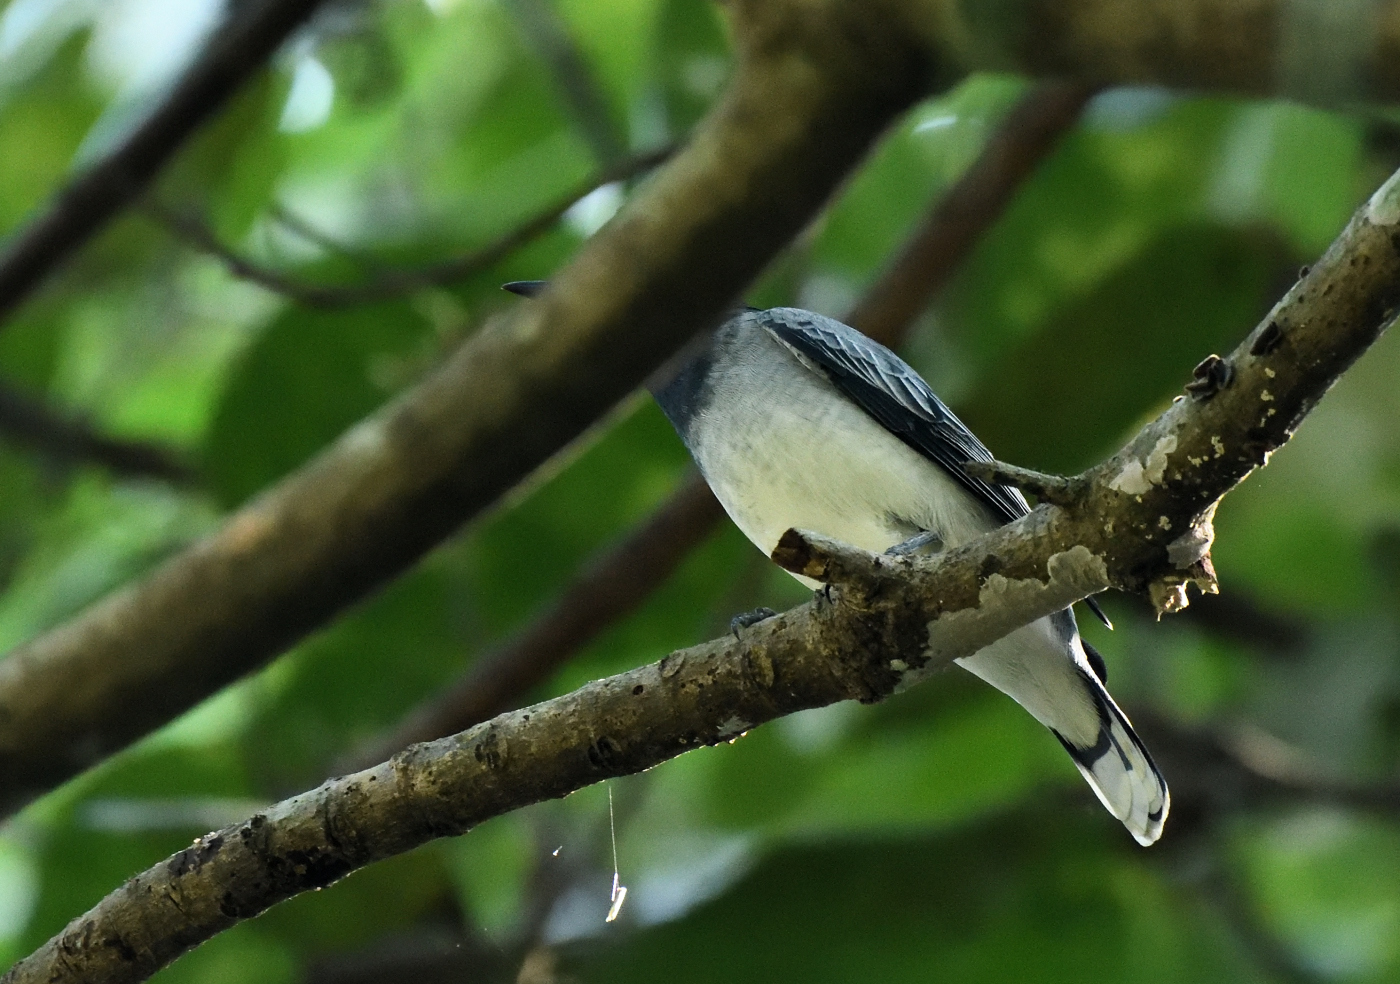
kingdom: Animalia
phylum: Chordata
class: Aves
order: Passeriformes
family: Campephagidae
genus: Coracina
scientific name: Coracina melanoptera
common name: Black-headed cuckooshrike
